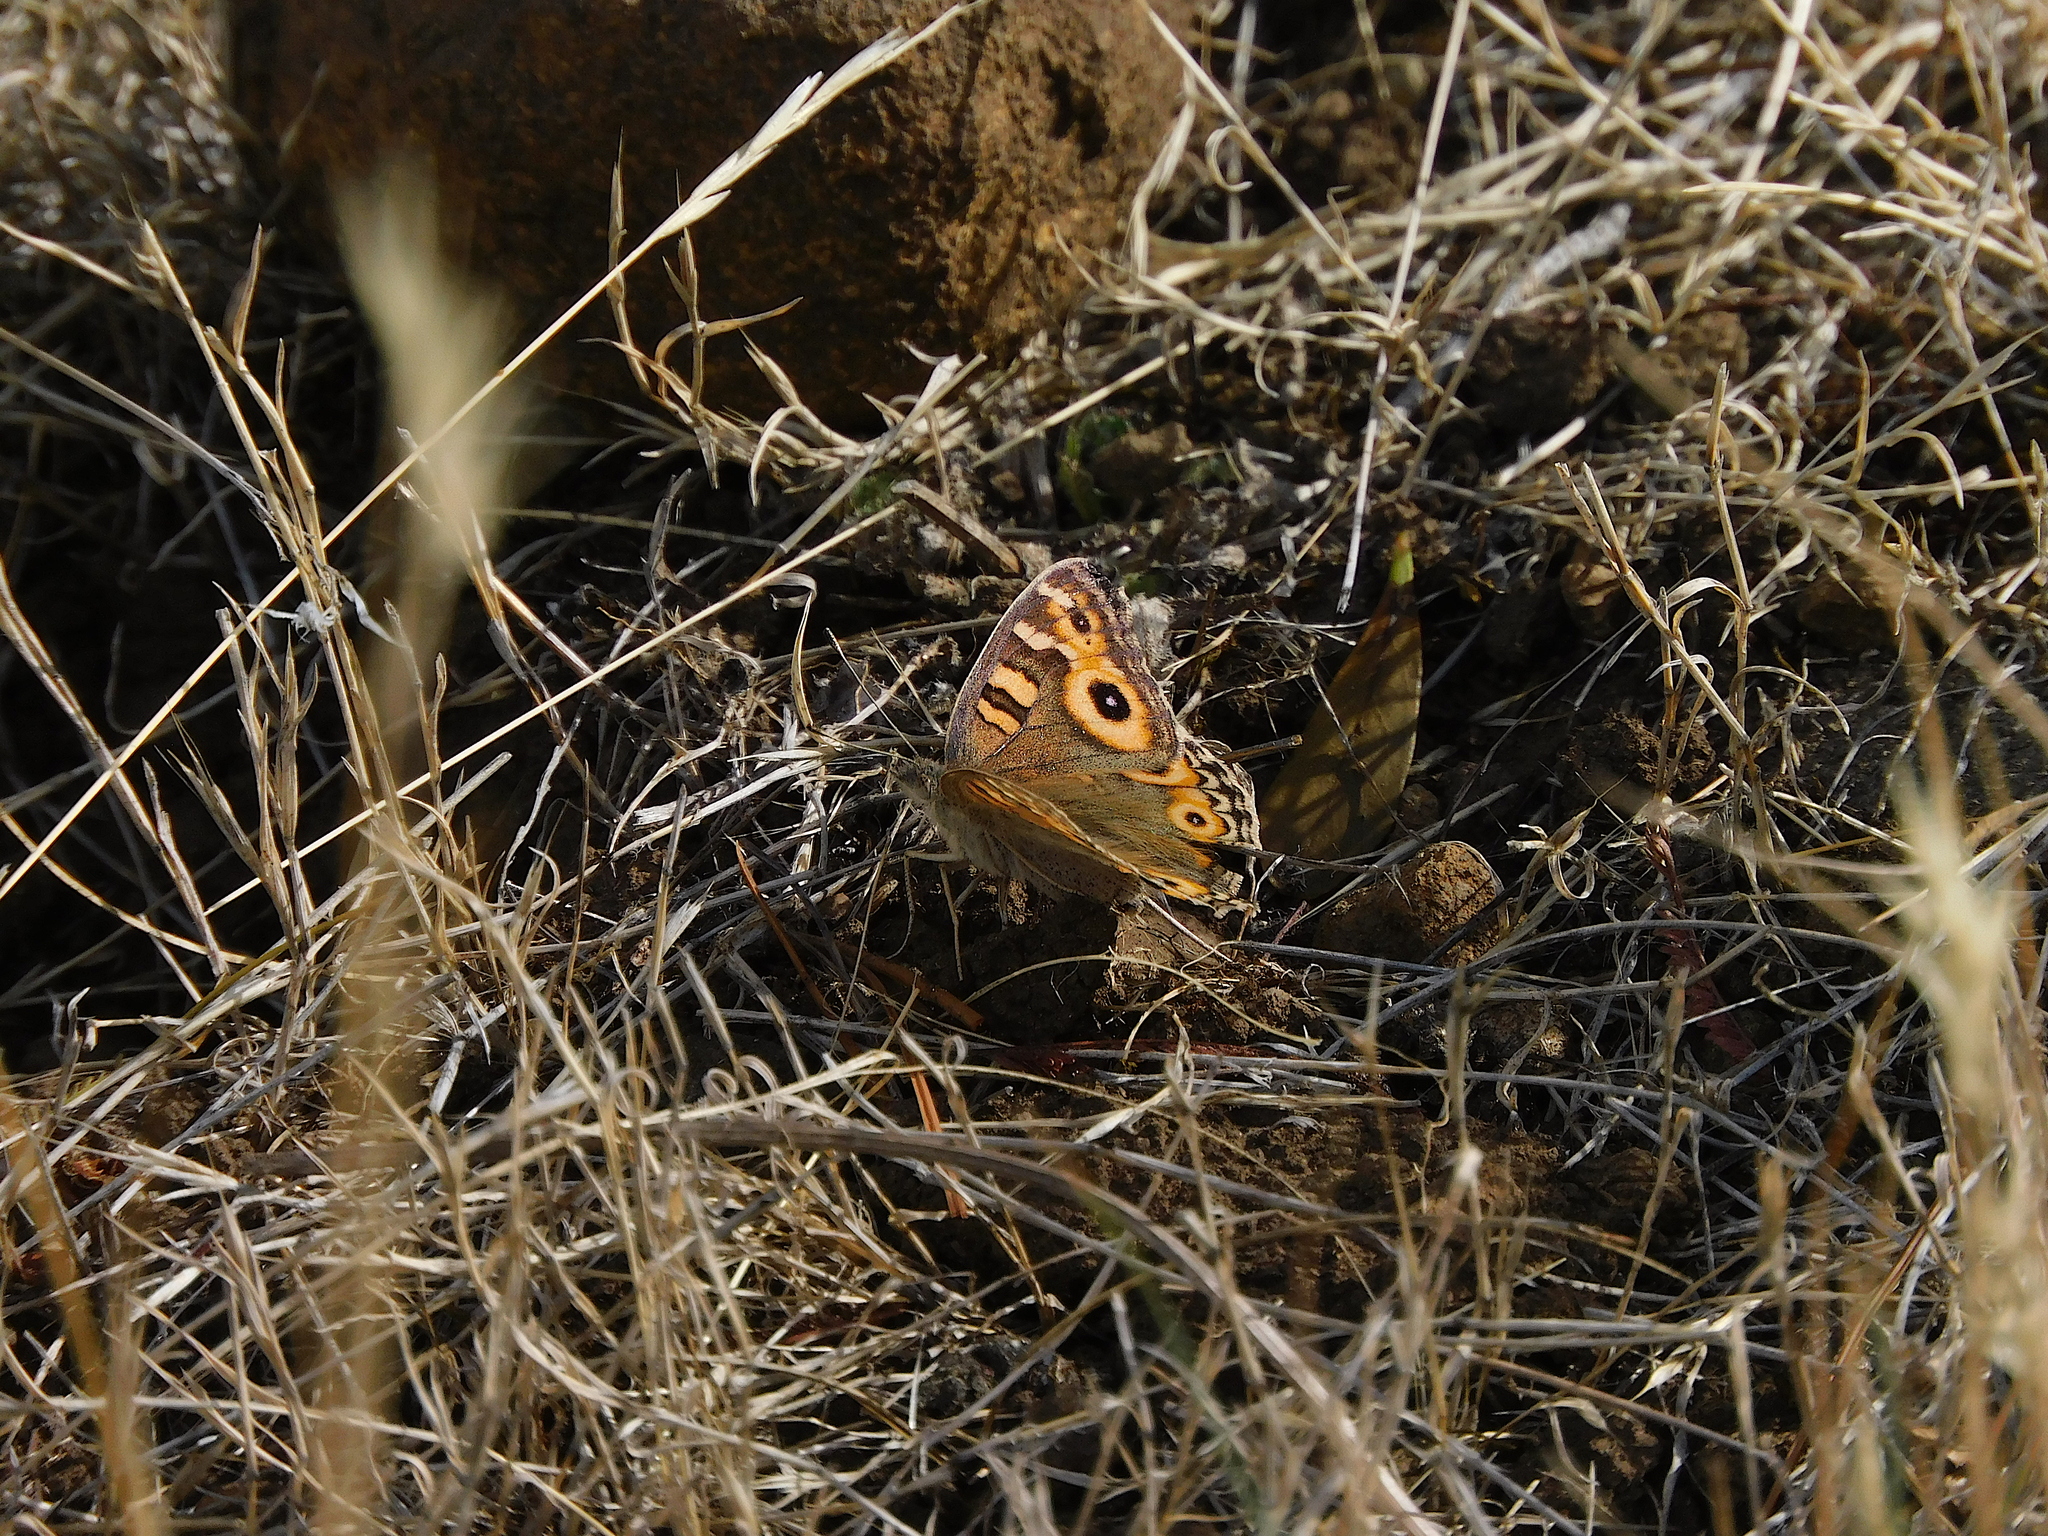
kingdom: Animalia
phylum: Arthropoda
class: Insecta
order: Lepidoptera
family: Nymphalidae
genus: Junonia
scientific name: Junonia villida
